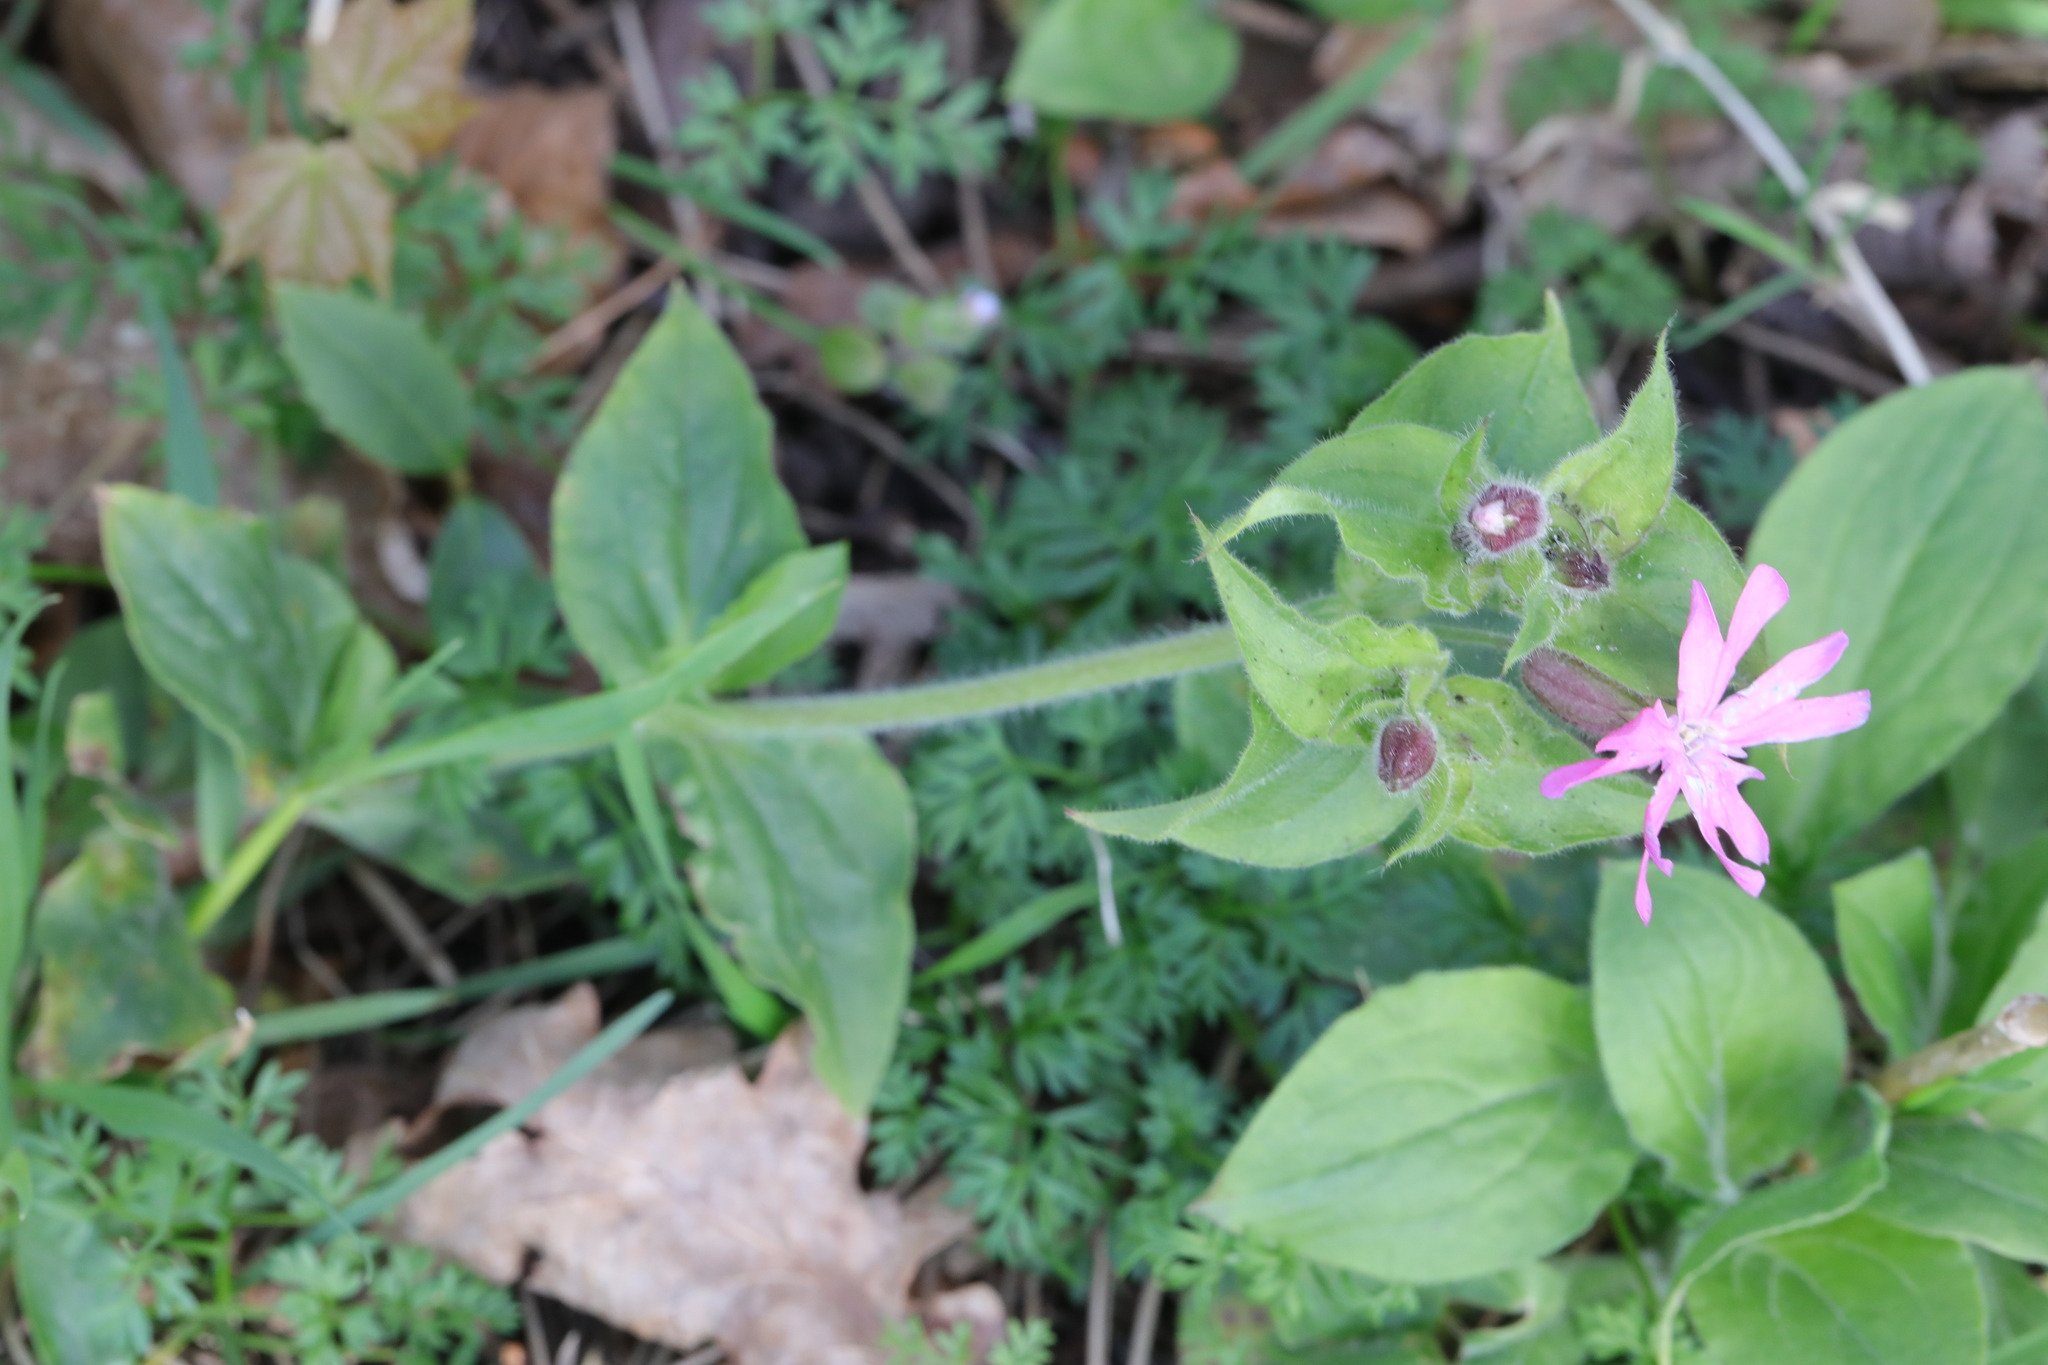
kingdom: Plantae
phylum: Tracheophyta
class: Magnoliopsida
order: Caryophyllales
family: Caryophyllaceae
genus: Silene
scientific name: Silene dioica
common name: Red campion
